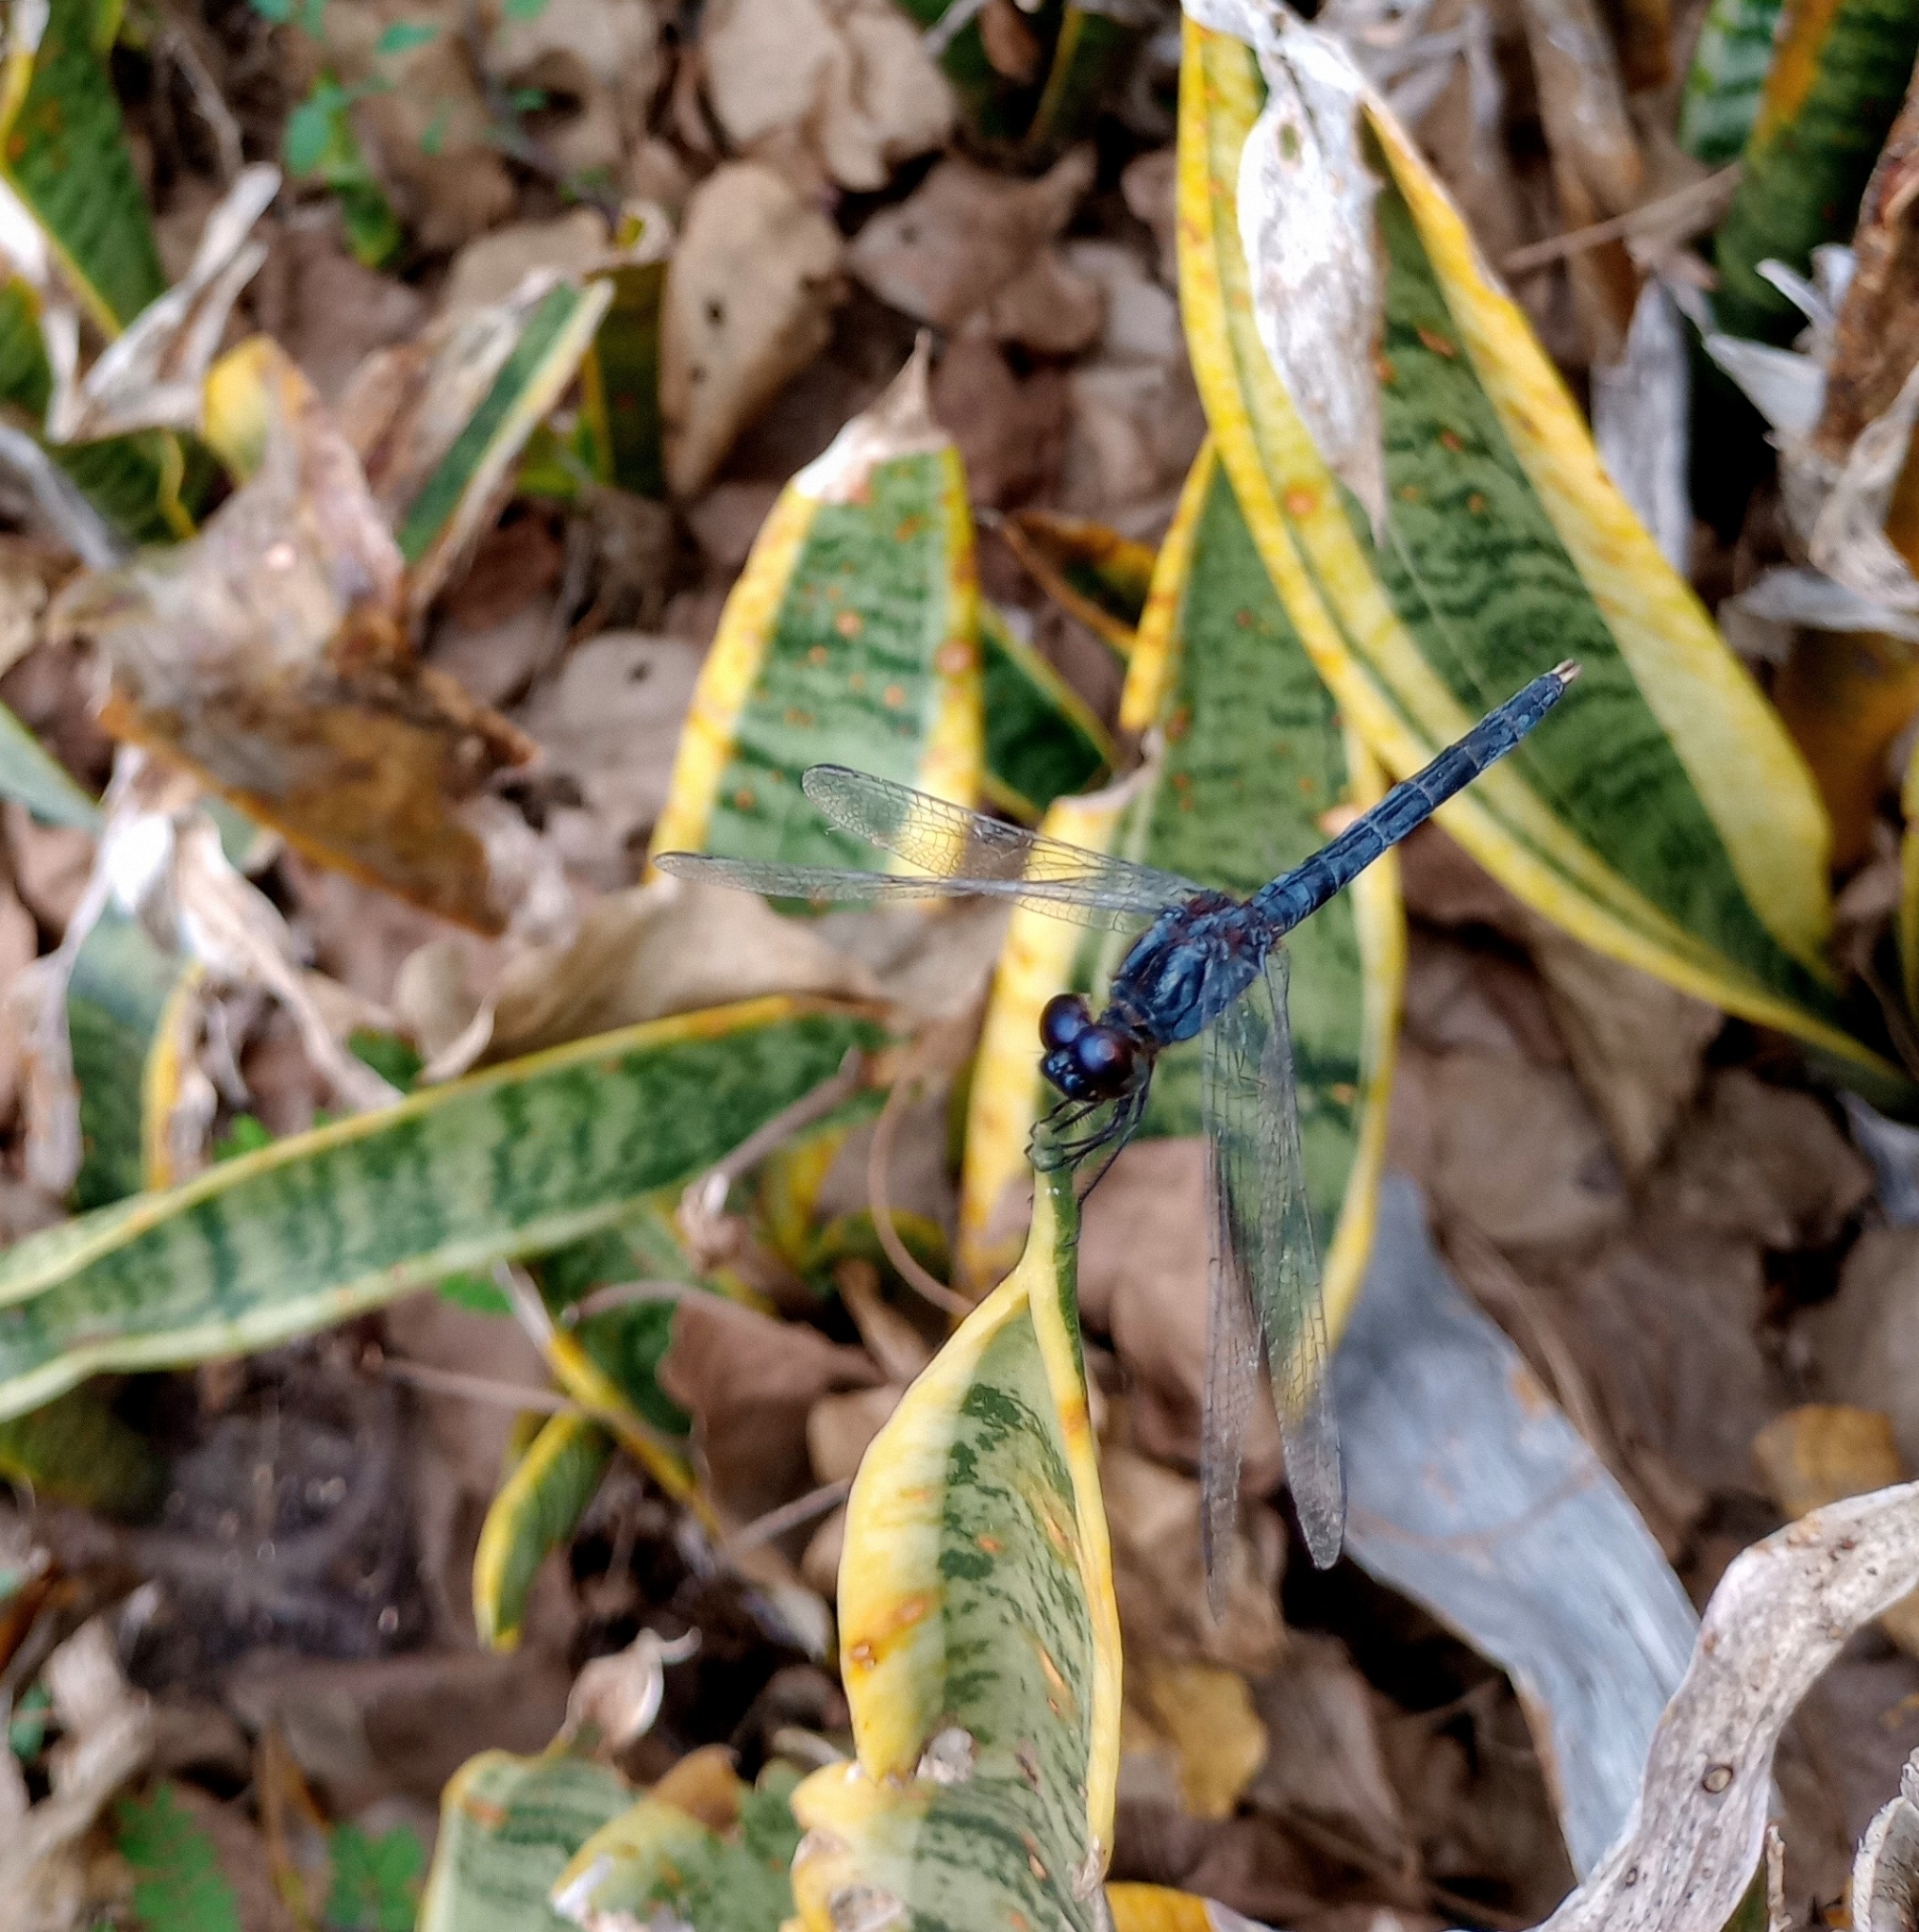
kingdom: Animalia
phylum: Arthropoda
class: Insecta
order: Odonata
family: Libellulidae
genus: Indothemis
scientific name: Indothemis carnatica
